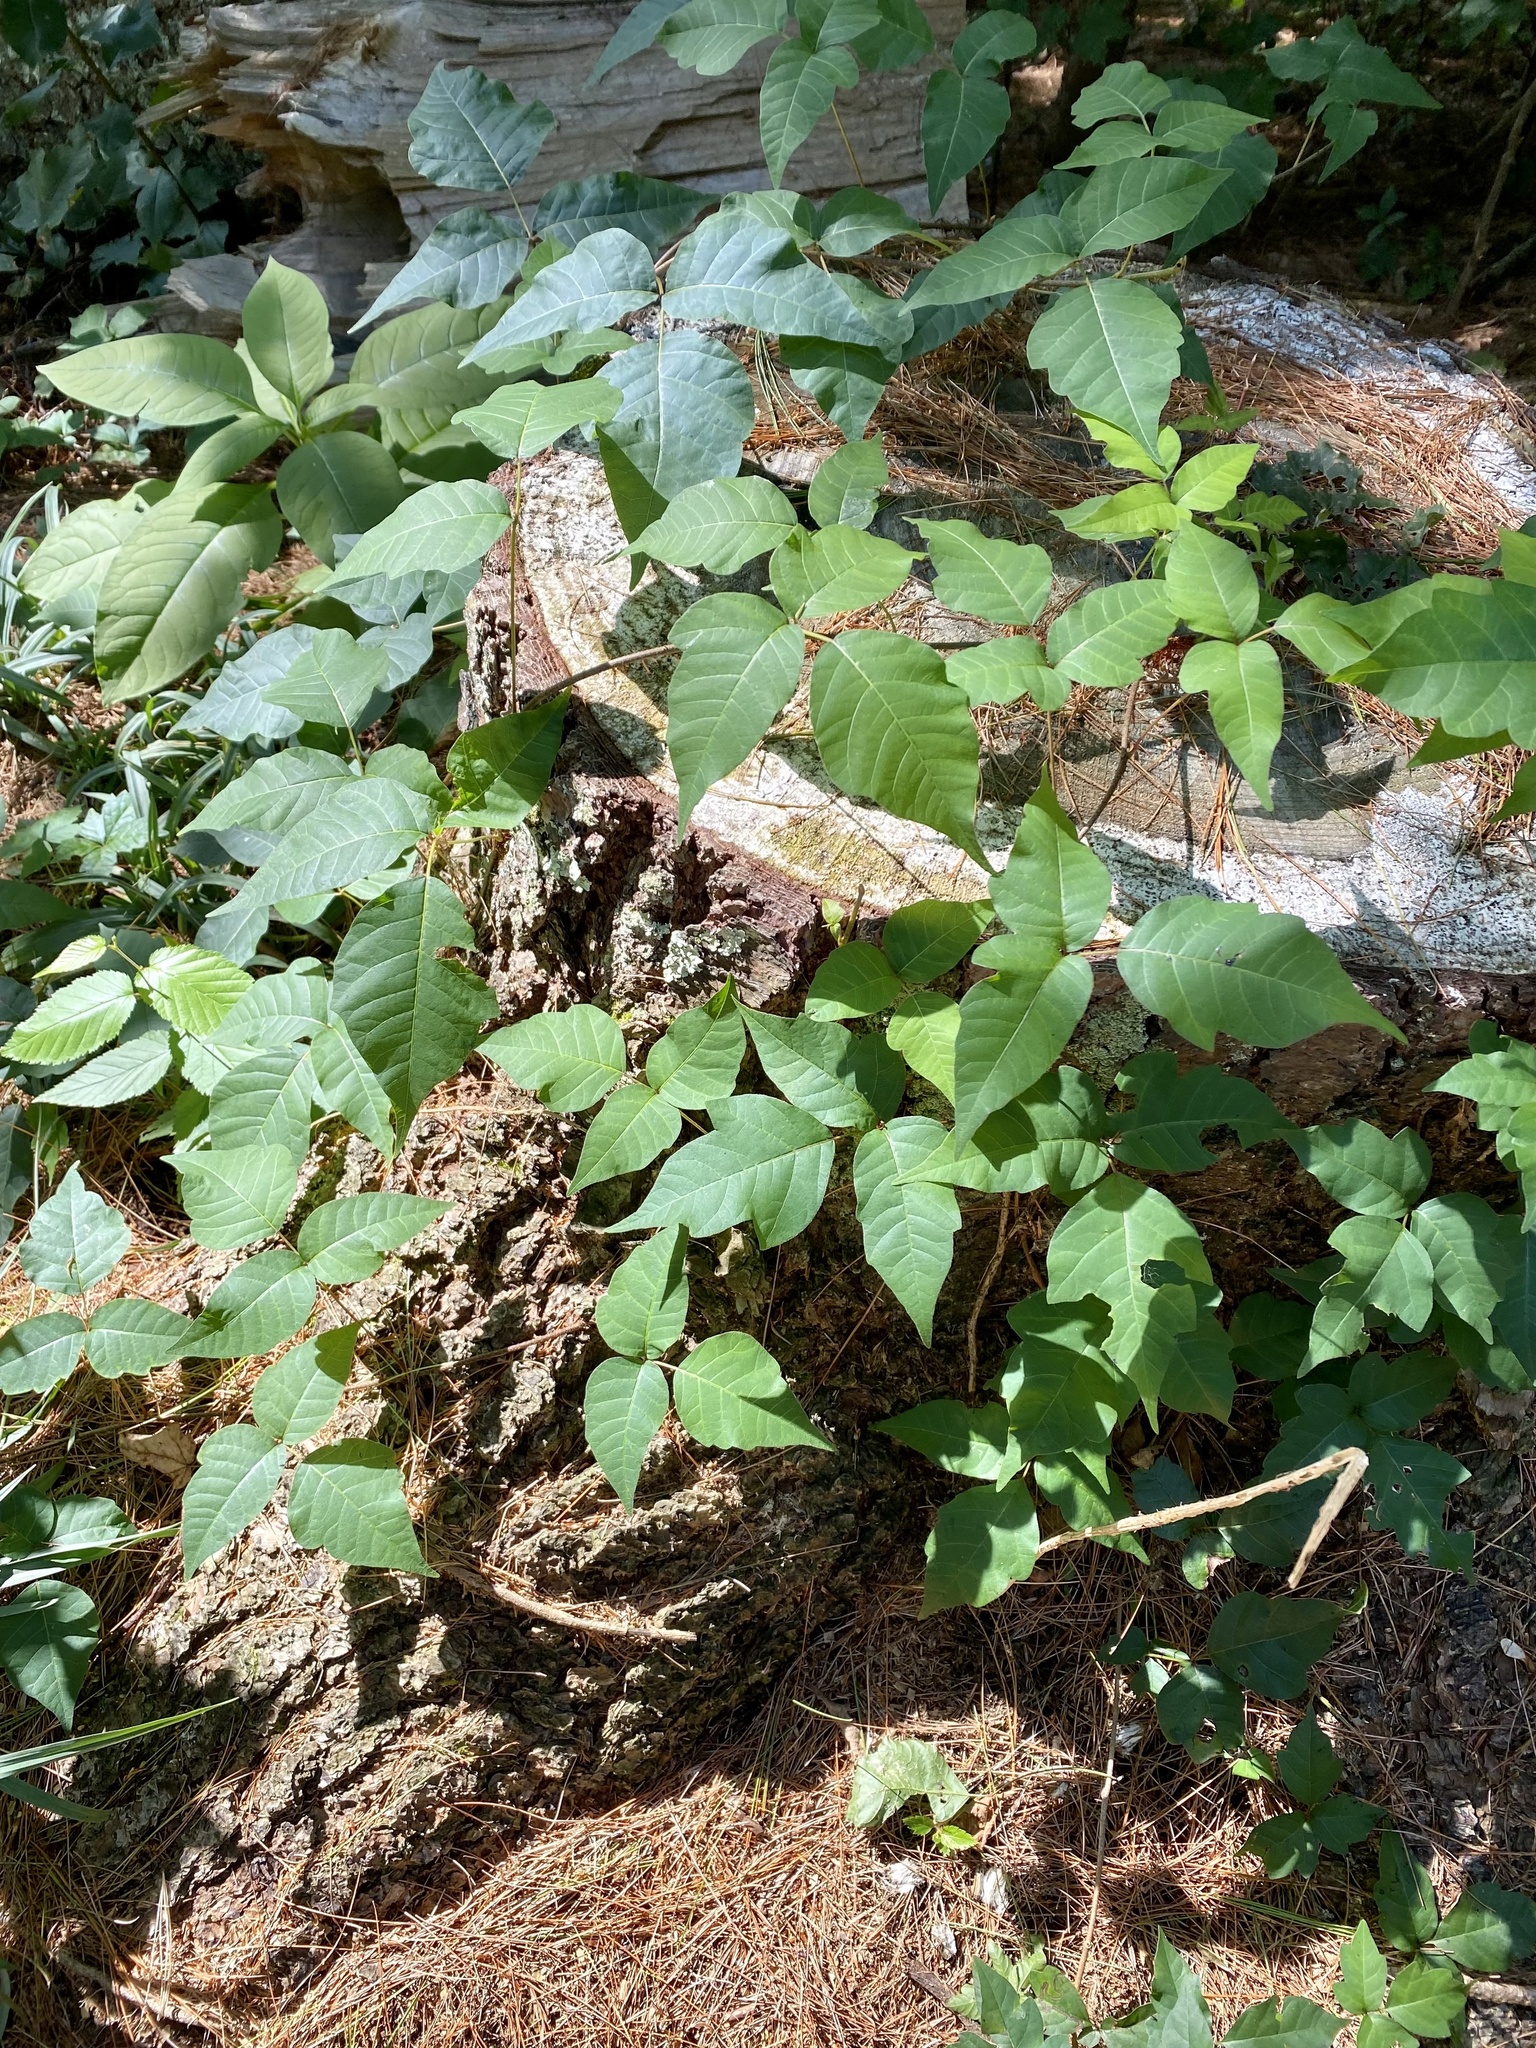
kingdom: Plantae
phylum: Tracheophyta
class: Magnoliopsida
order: Sapindales
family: Anacardiaceae
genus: Toxicodendron
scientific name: Toxicodendron radicans
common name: Poison ivy
